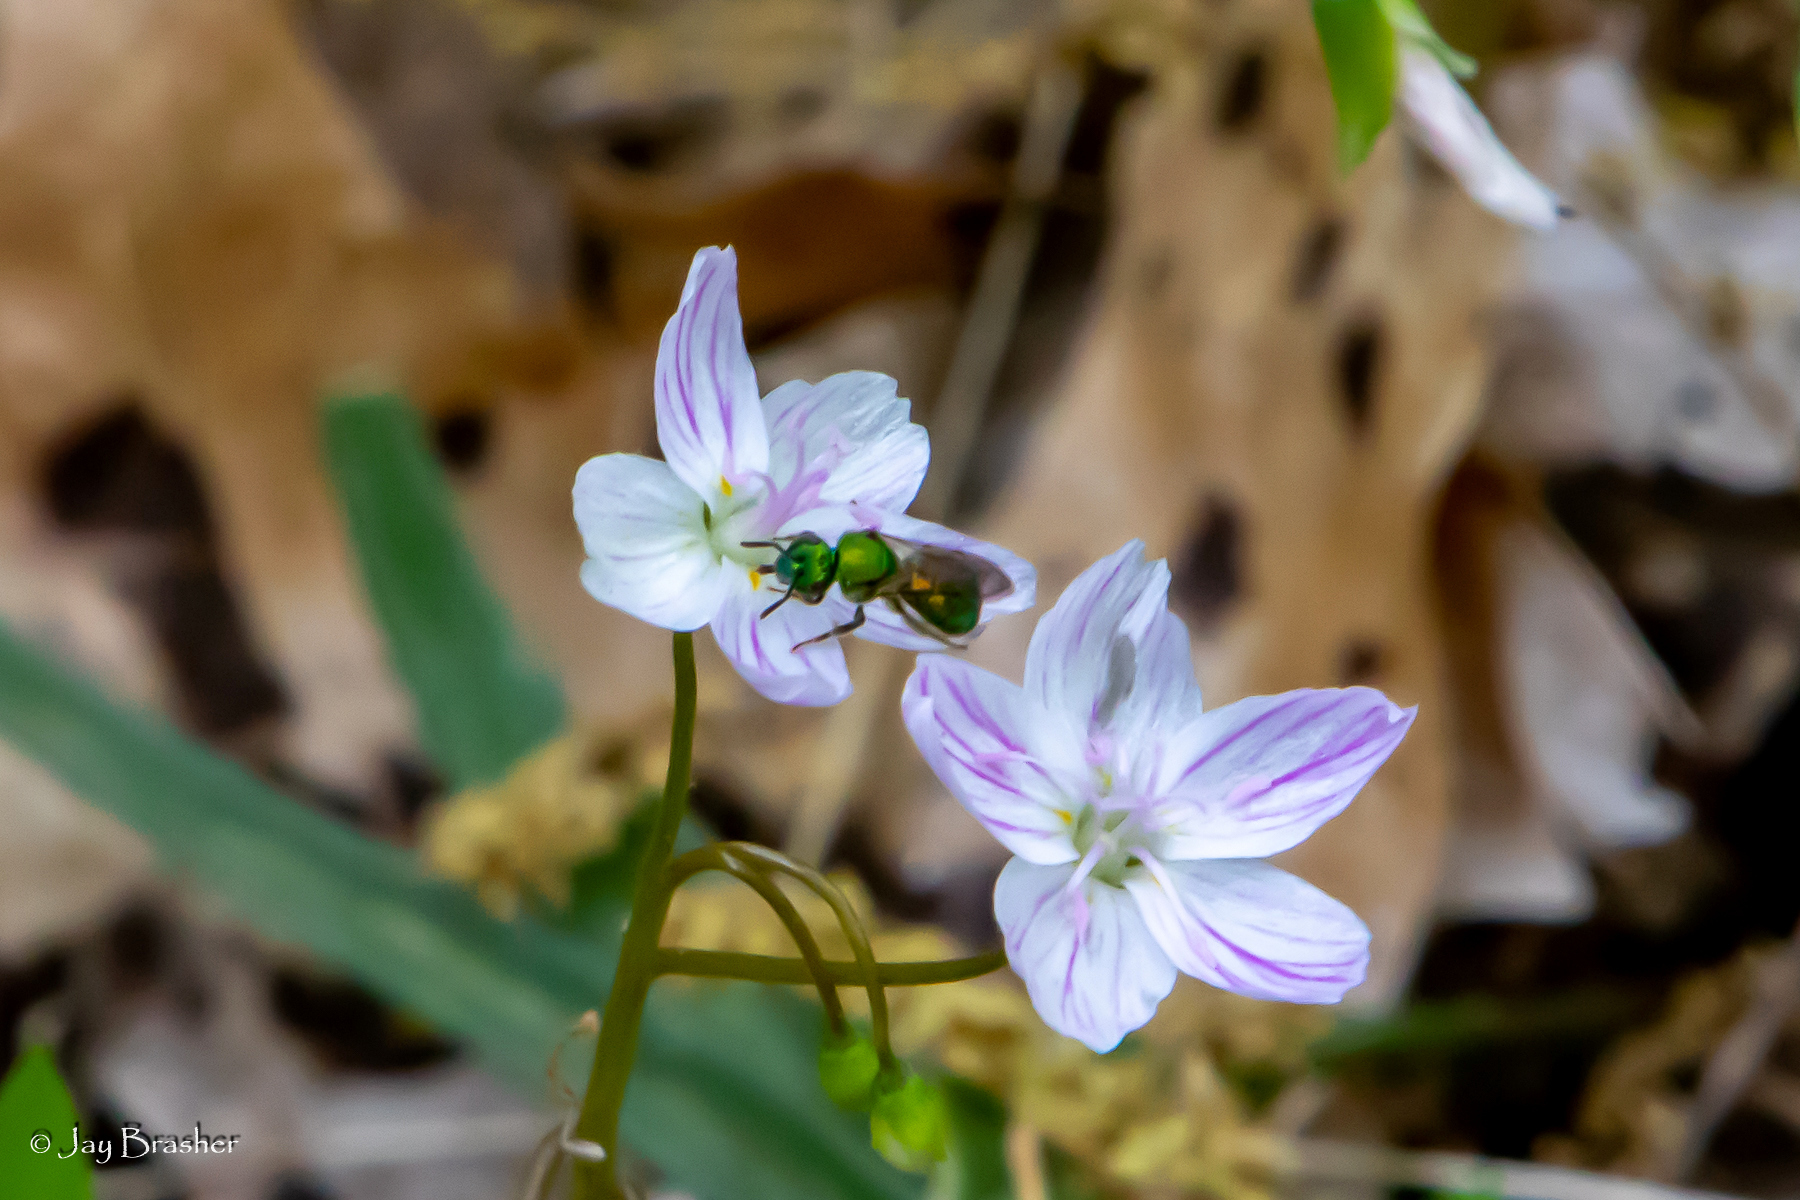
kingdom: Plantae
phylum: Tracheophyta
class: Magnoliopsida
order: Caryophyllales
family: Montiaceae
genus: Claytonia
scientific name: Claytonia virginica
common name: Virginia springbeauty
